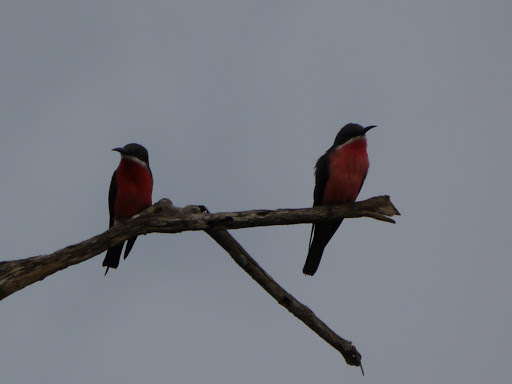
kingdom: Animalia
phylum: Chordata
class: Aves
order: Coraciiformes
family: Meropidae
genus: Merops
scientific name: Merops malimbicus
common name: Rosy bee-eater
